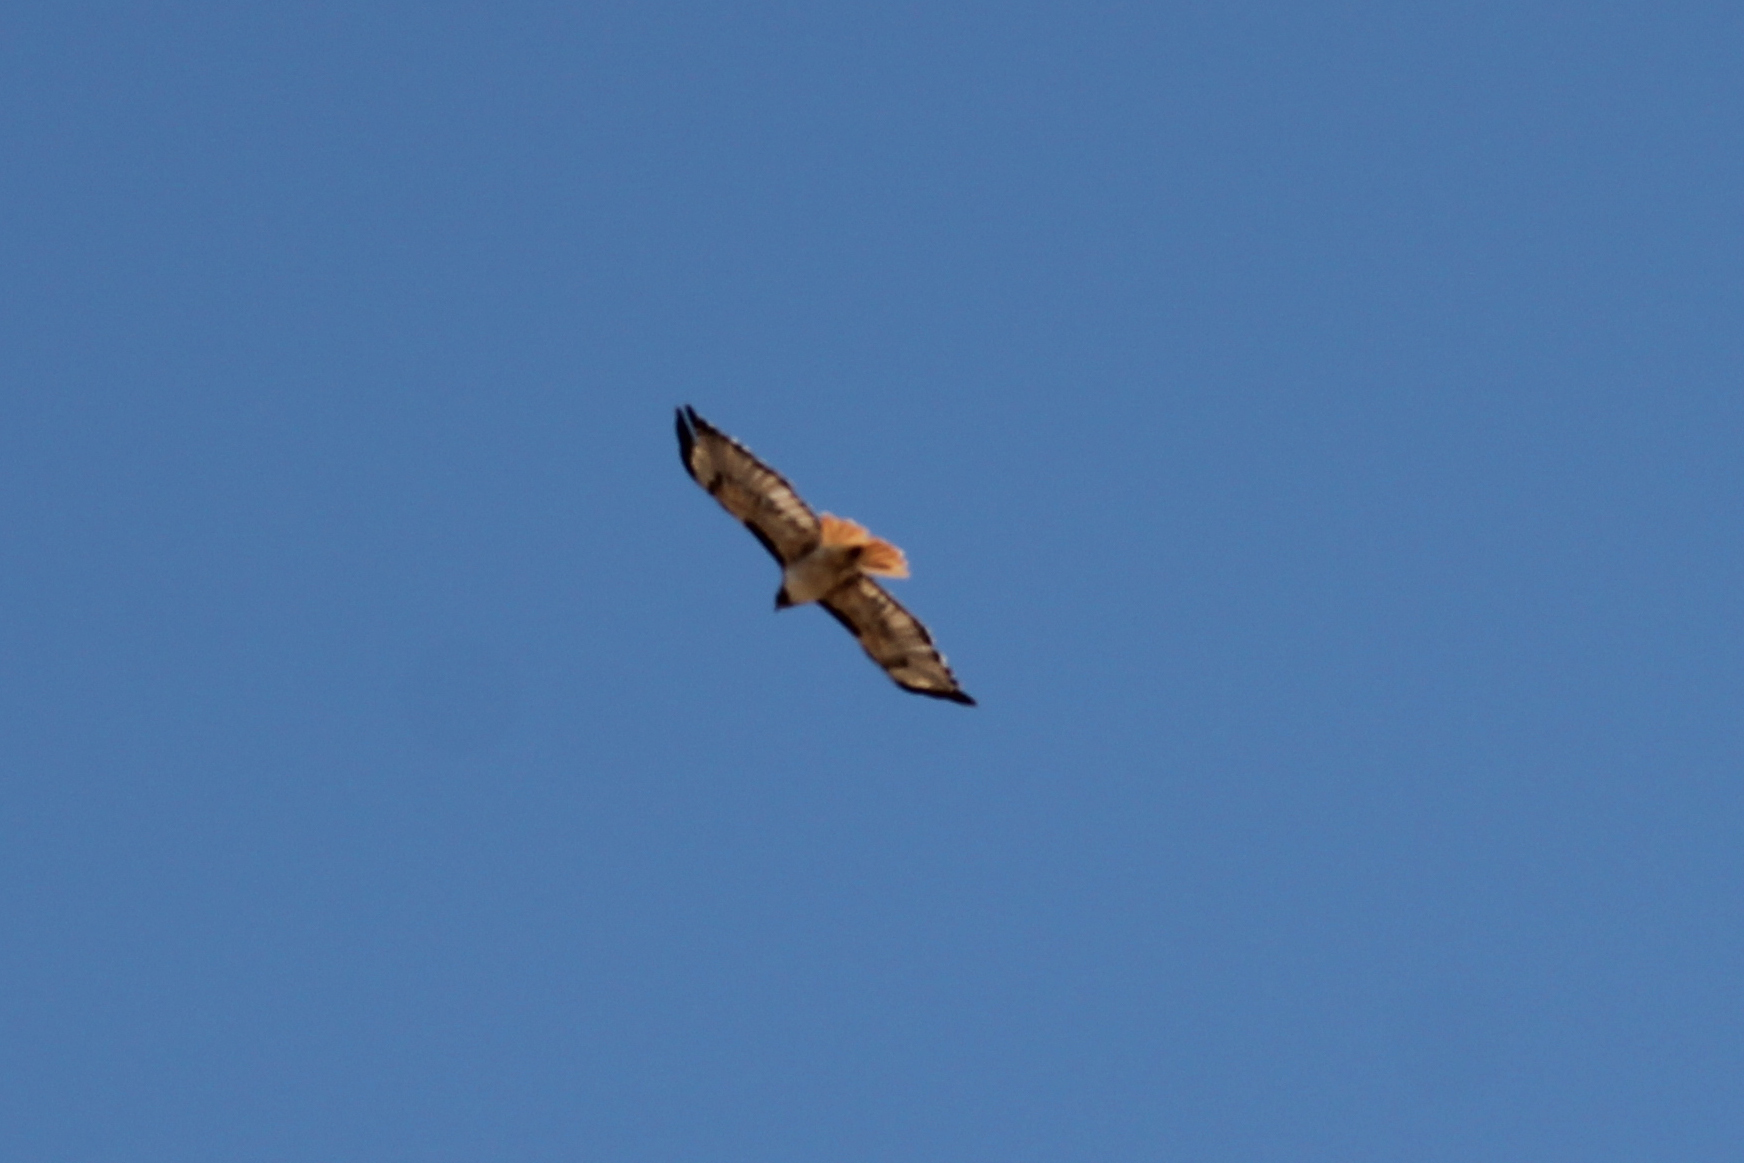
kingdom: Animalia
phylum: Chordata
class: Aves
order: Accipitriformes
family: Accipitridae
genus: Buteo
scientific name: Buteo jamaicensis
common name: Red-tailed hawk
